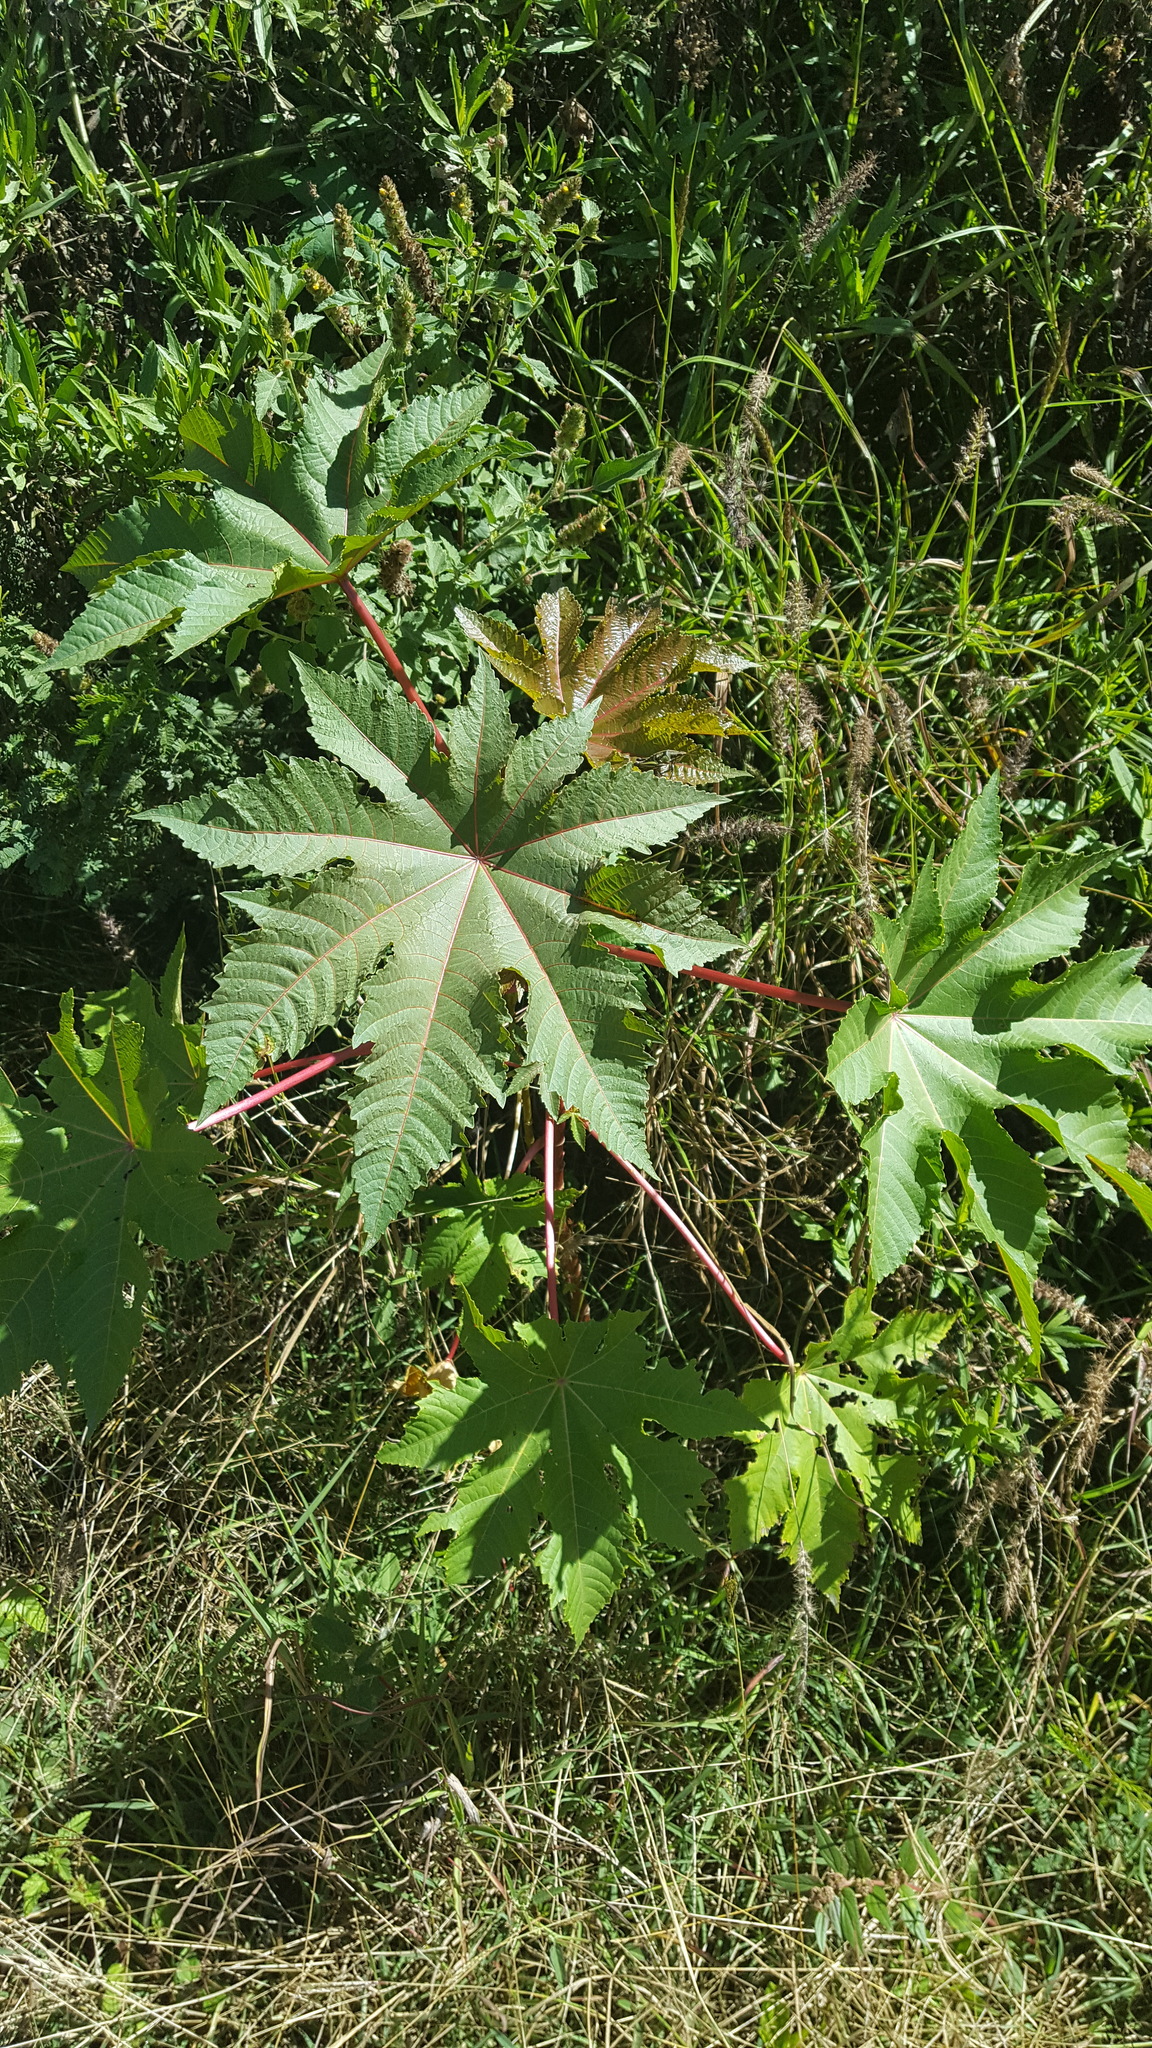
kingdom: Plantae
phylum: Tracheophyta
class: Magnoliopsida
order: Malpighiales
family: Euphorbiaceae
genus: Ricinus
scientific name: Ricinus communis
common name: Castor-oil-plant
